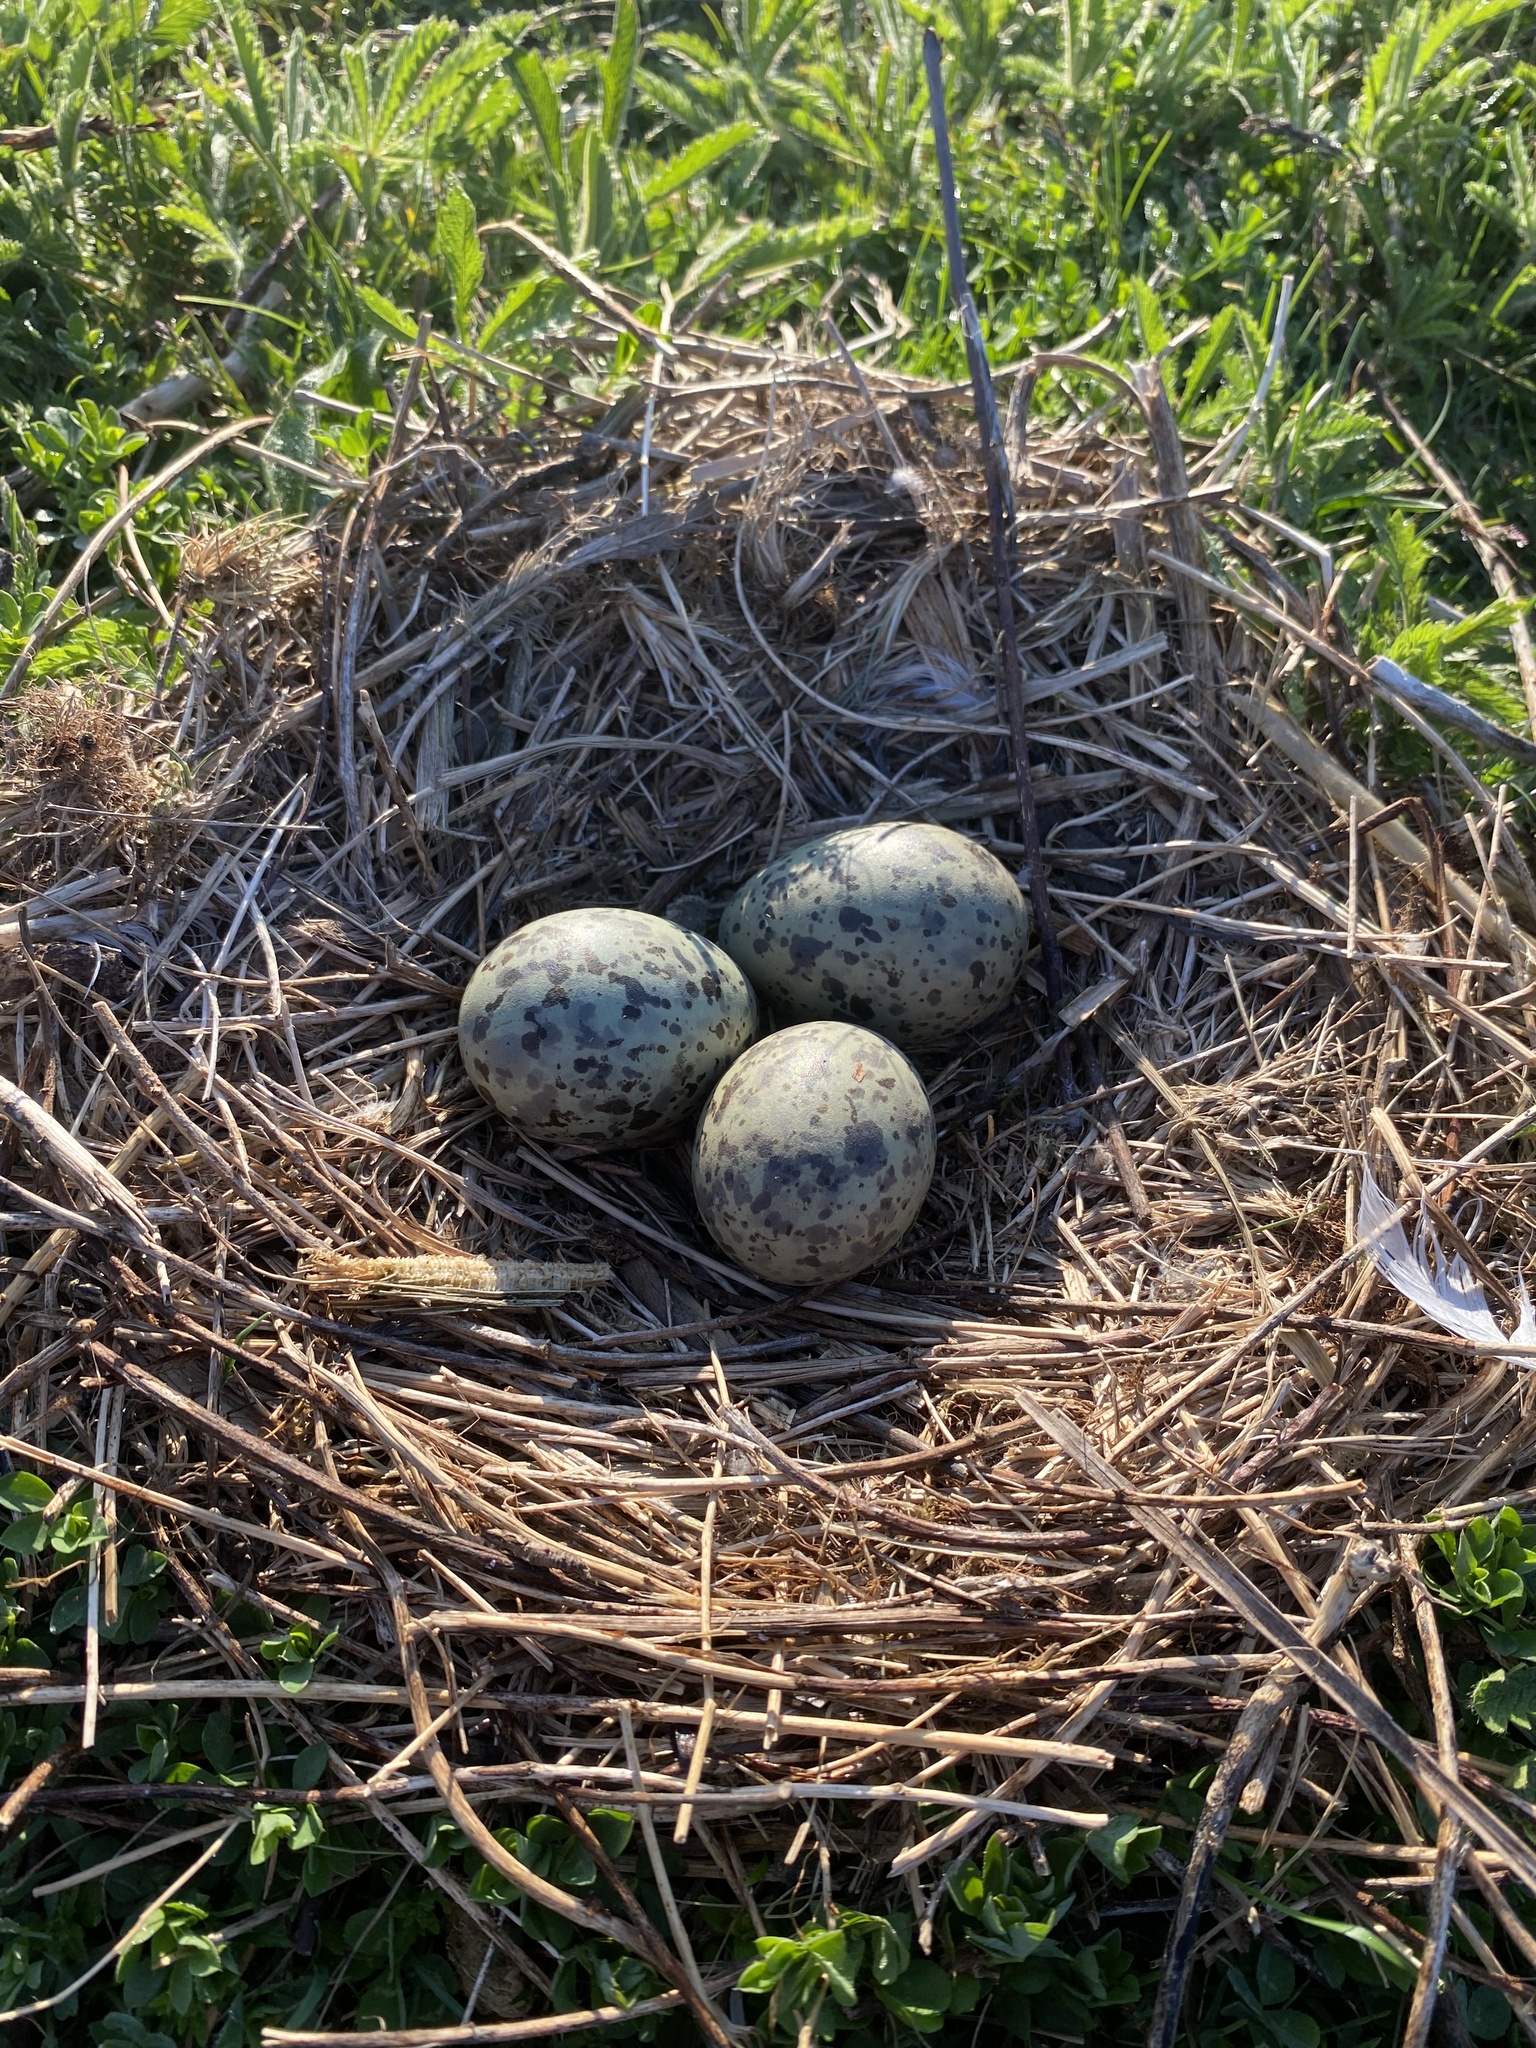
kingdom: Animalia
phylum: Chordata
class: Aves
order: Charadriiformes
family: Laridae
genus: Larus
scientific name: Larus delawarensis
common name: Ring-billed gull
